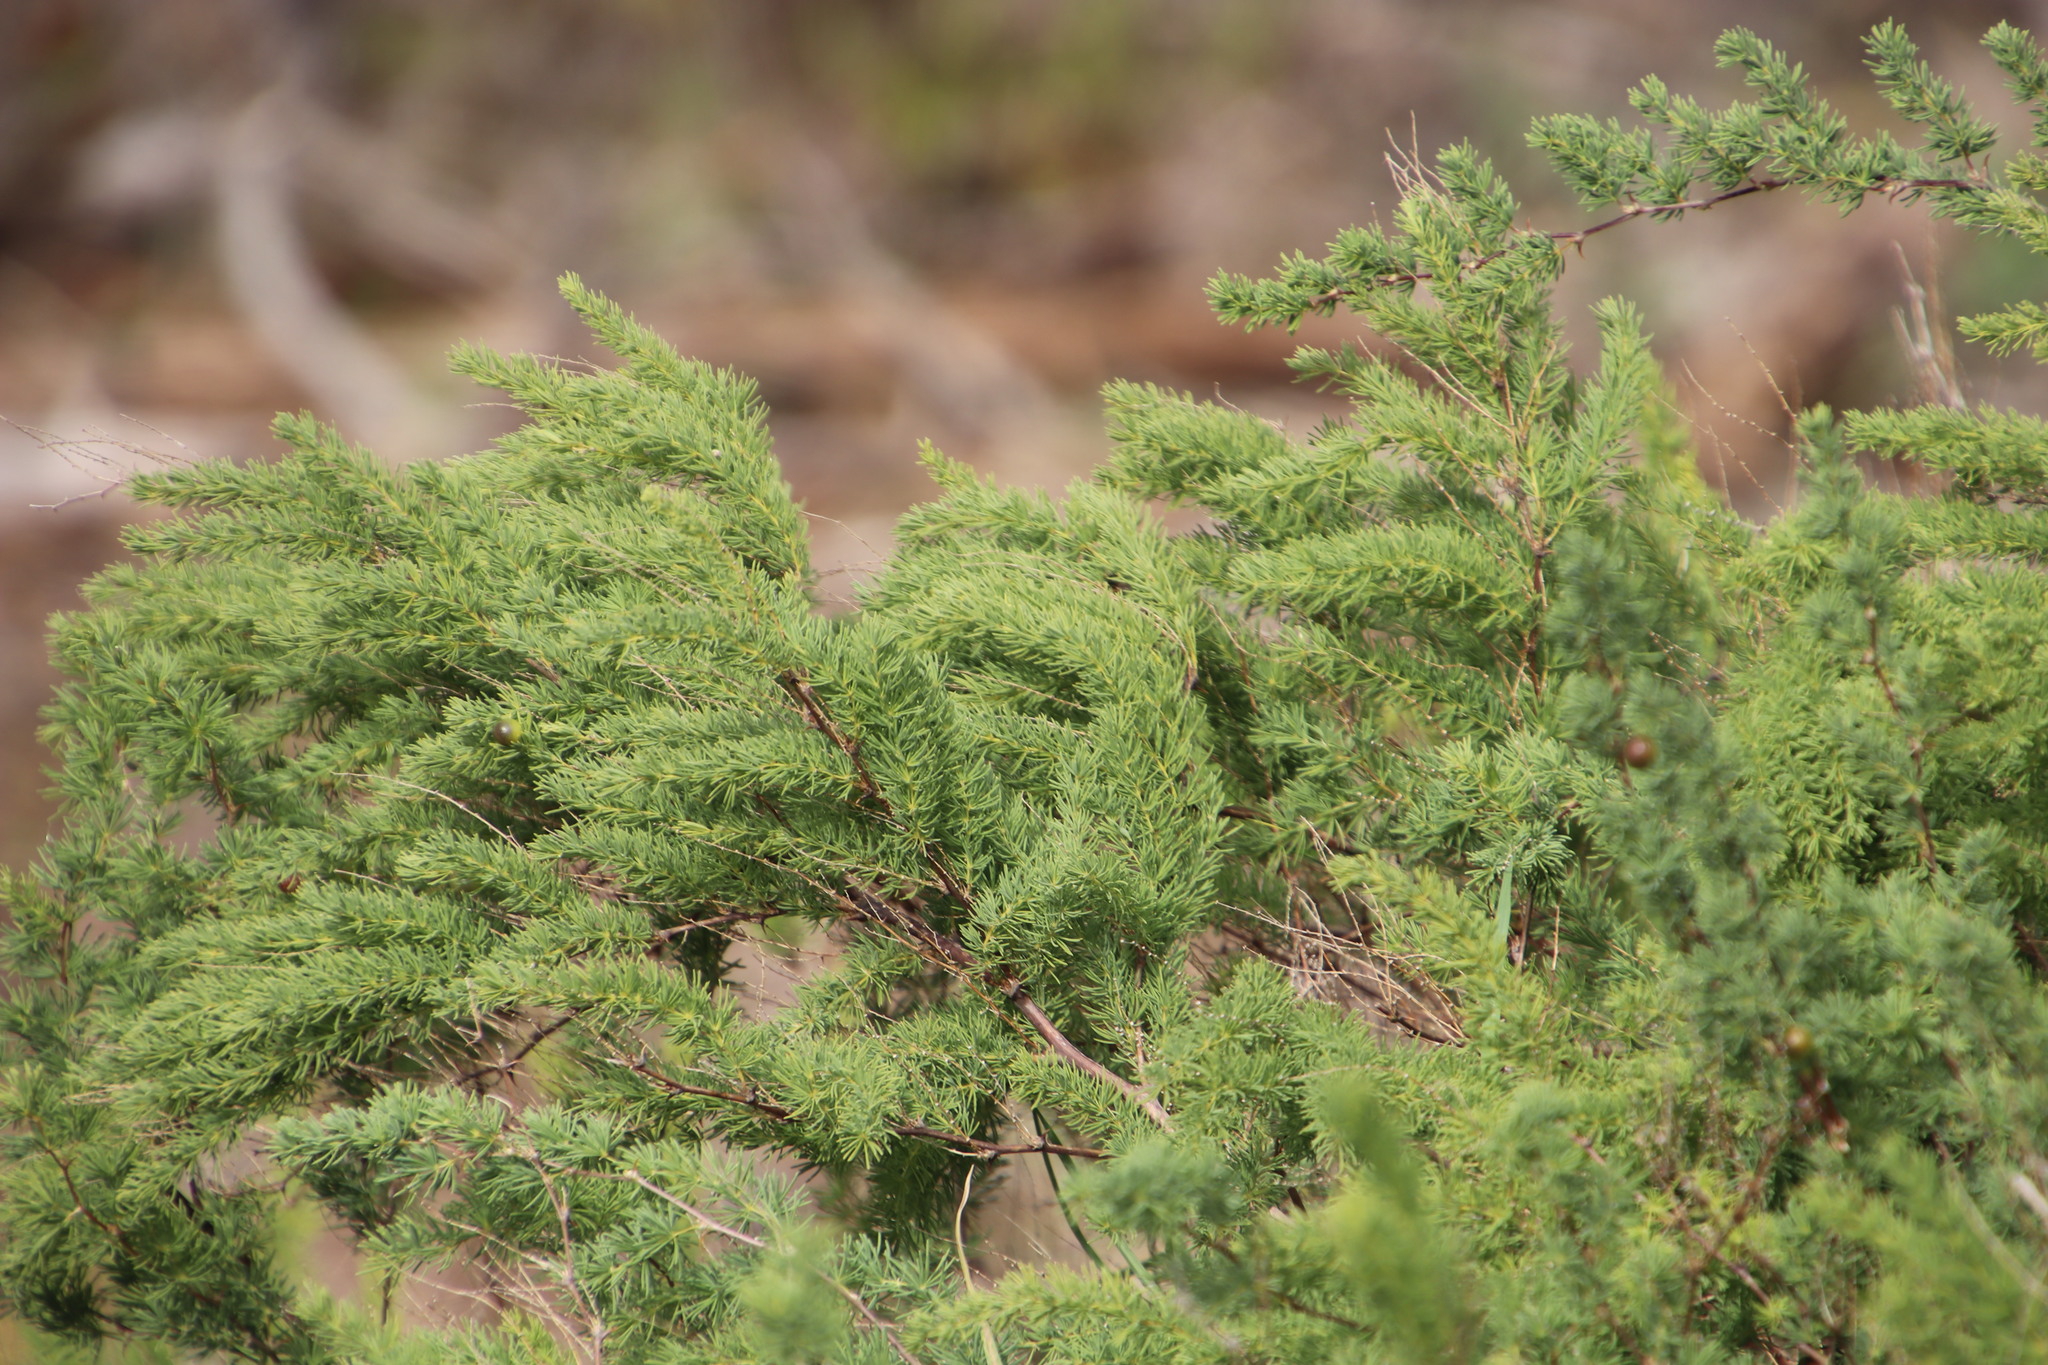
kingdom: Plantae
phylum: Tracheophyta
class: Liliopsida
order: Asparagales
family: Asparagaceae
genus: Asparagus
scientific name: Asparagus rubicundus
